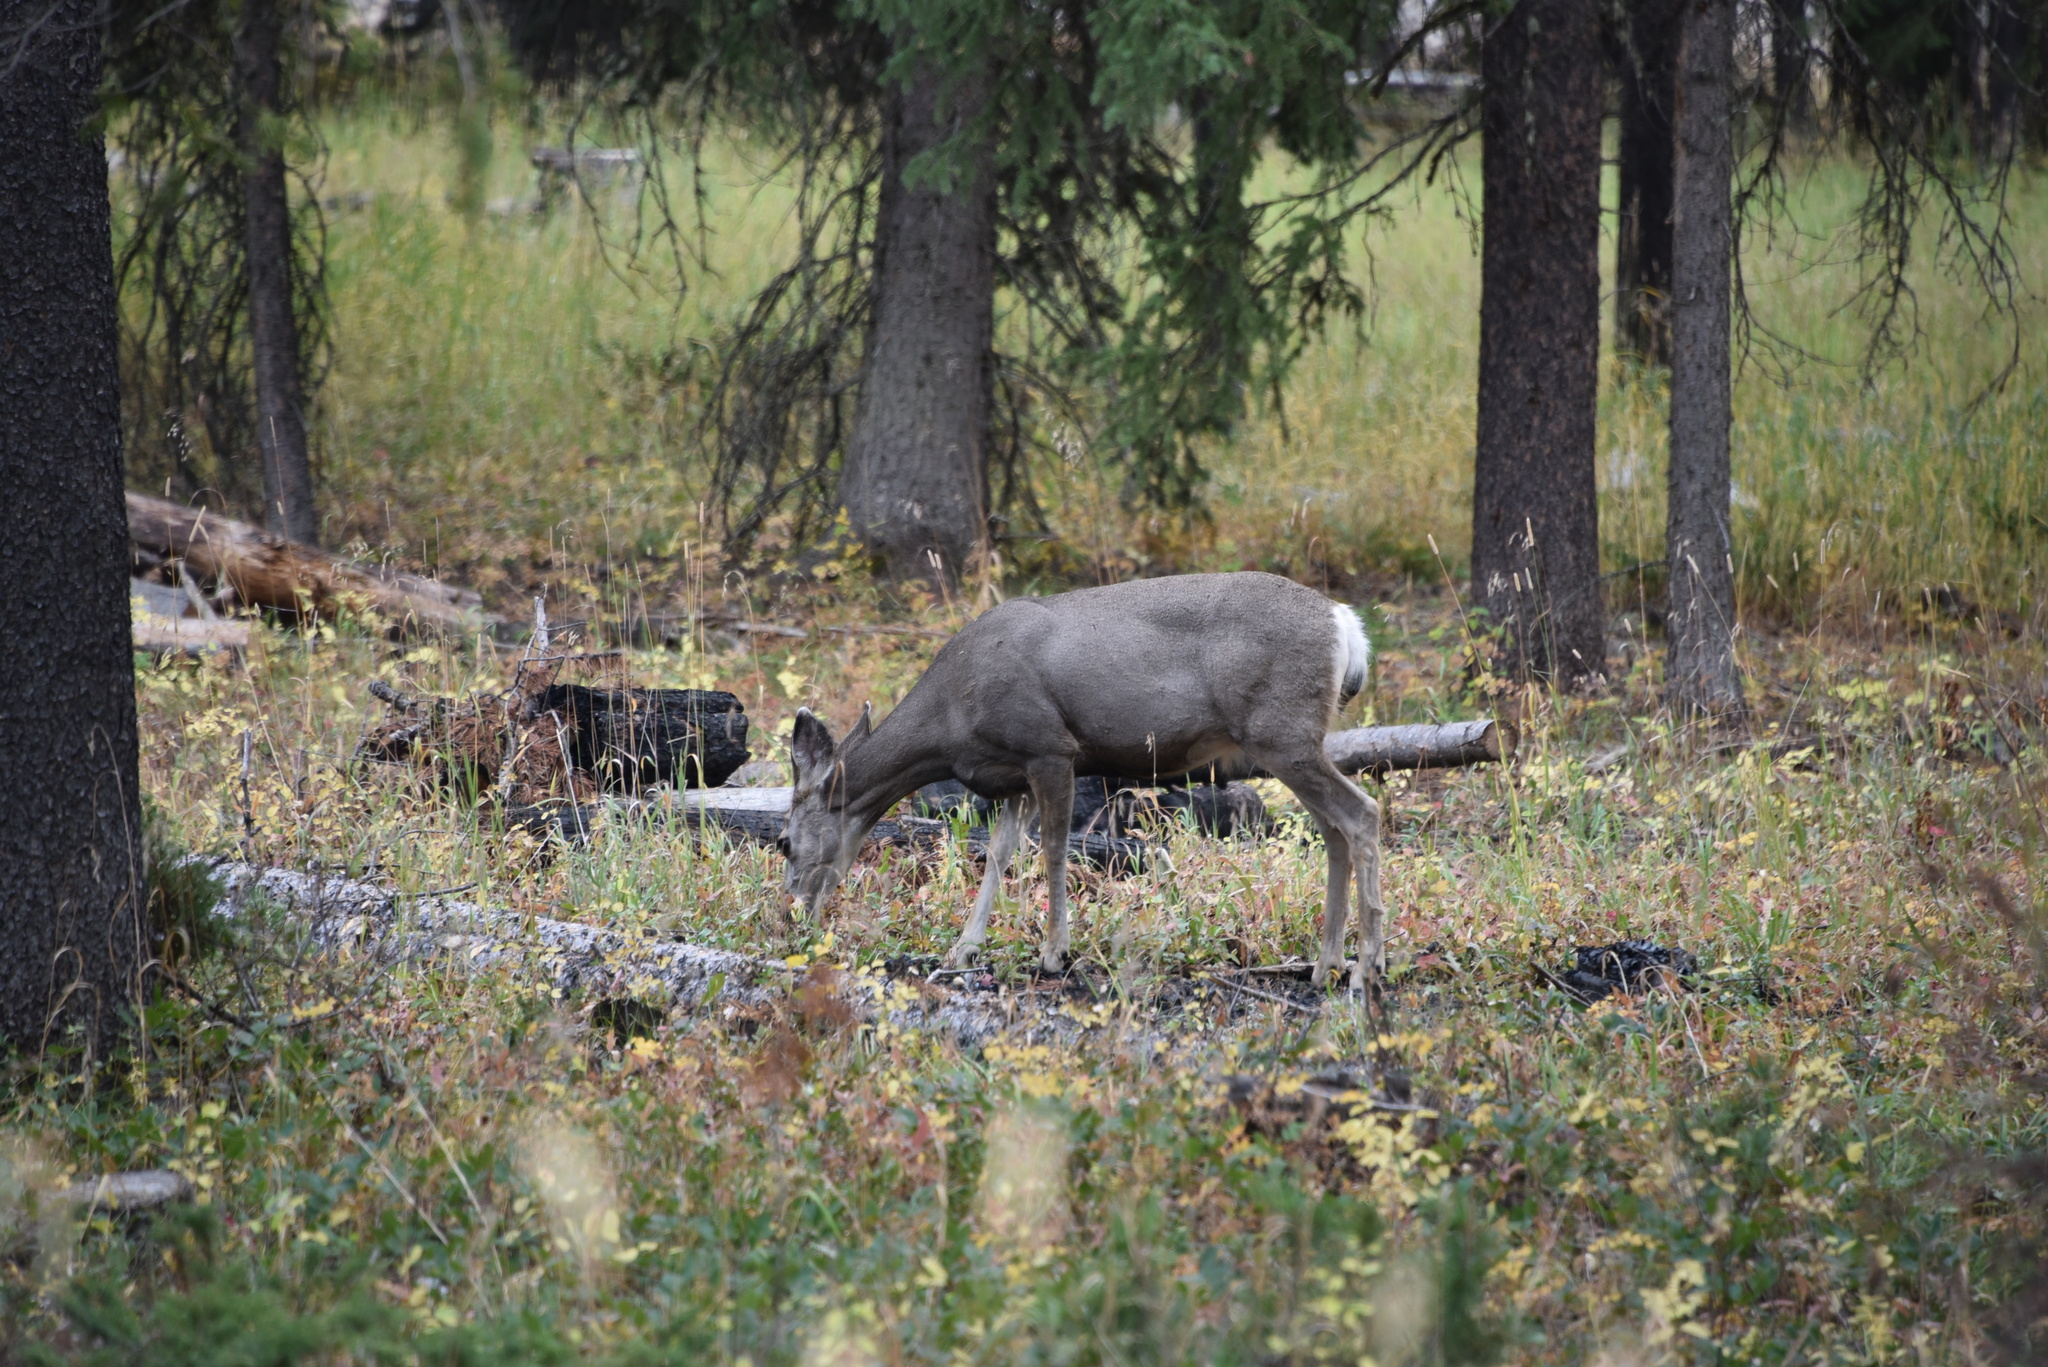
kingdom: Animalia
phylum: Chordata
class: Mammalia
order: Artiodactyla
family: Cervidae
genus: Odocoileus
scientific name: Odocoileus hemionus
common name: Mule deer
